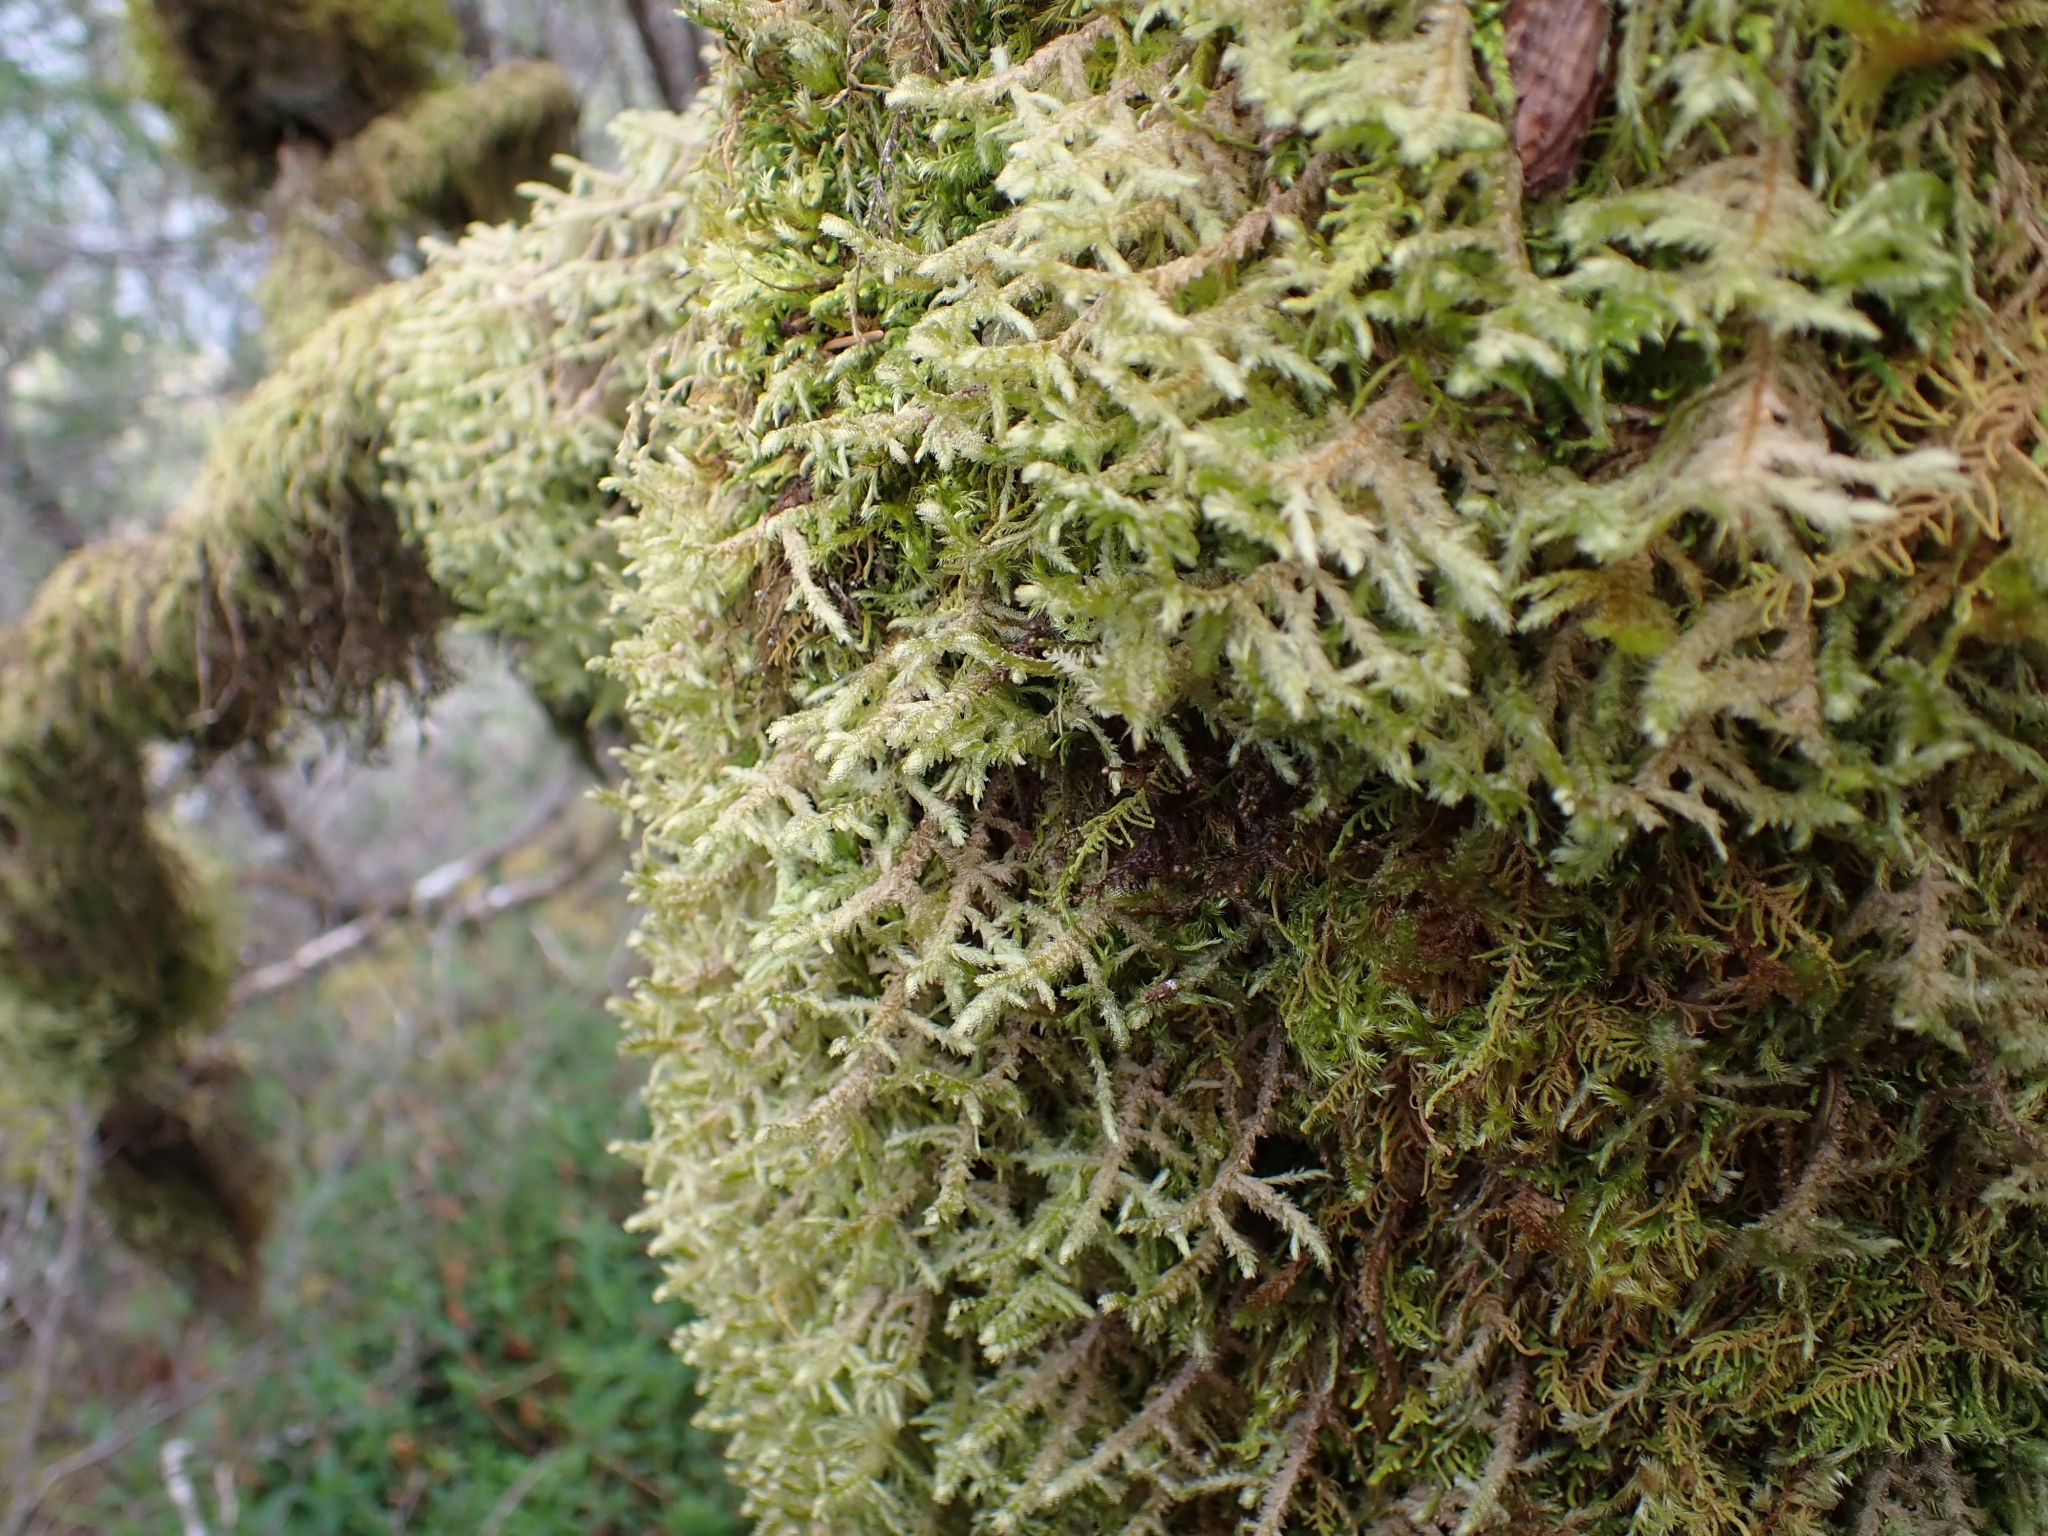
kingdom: Plantae
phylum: Bryophyta
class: Bryopsida
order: Hypnales
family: Neckeraceae
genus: Neckera
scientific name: Neckera douglasii
